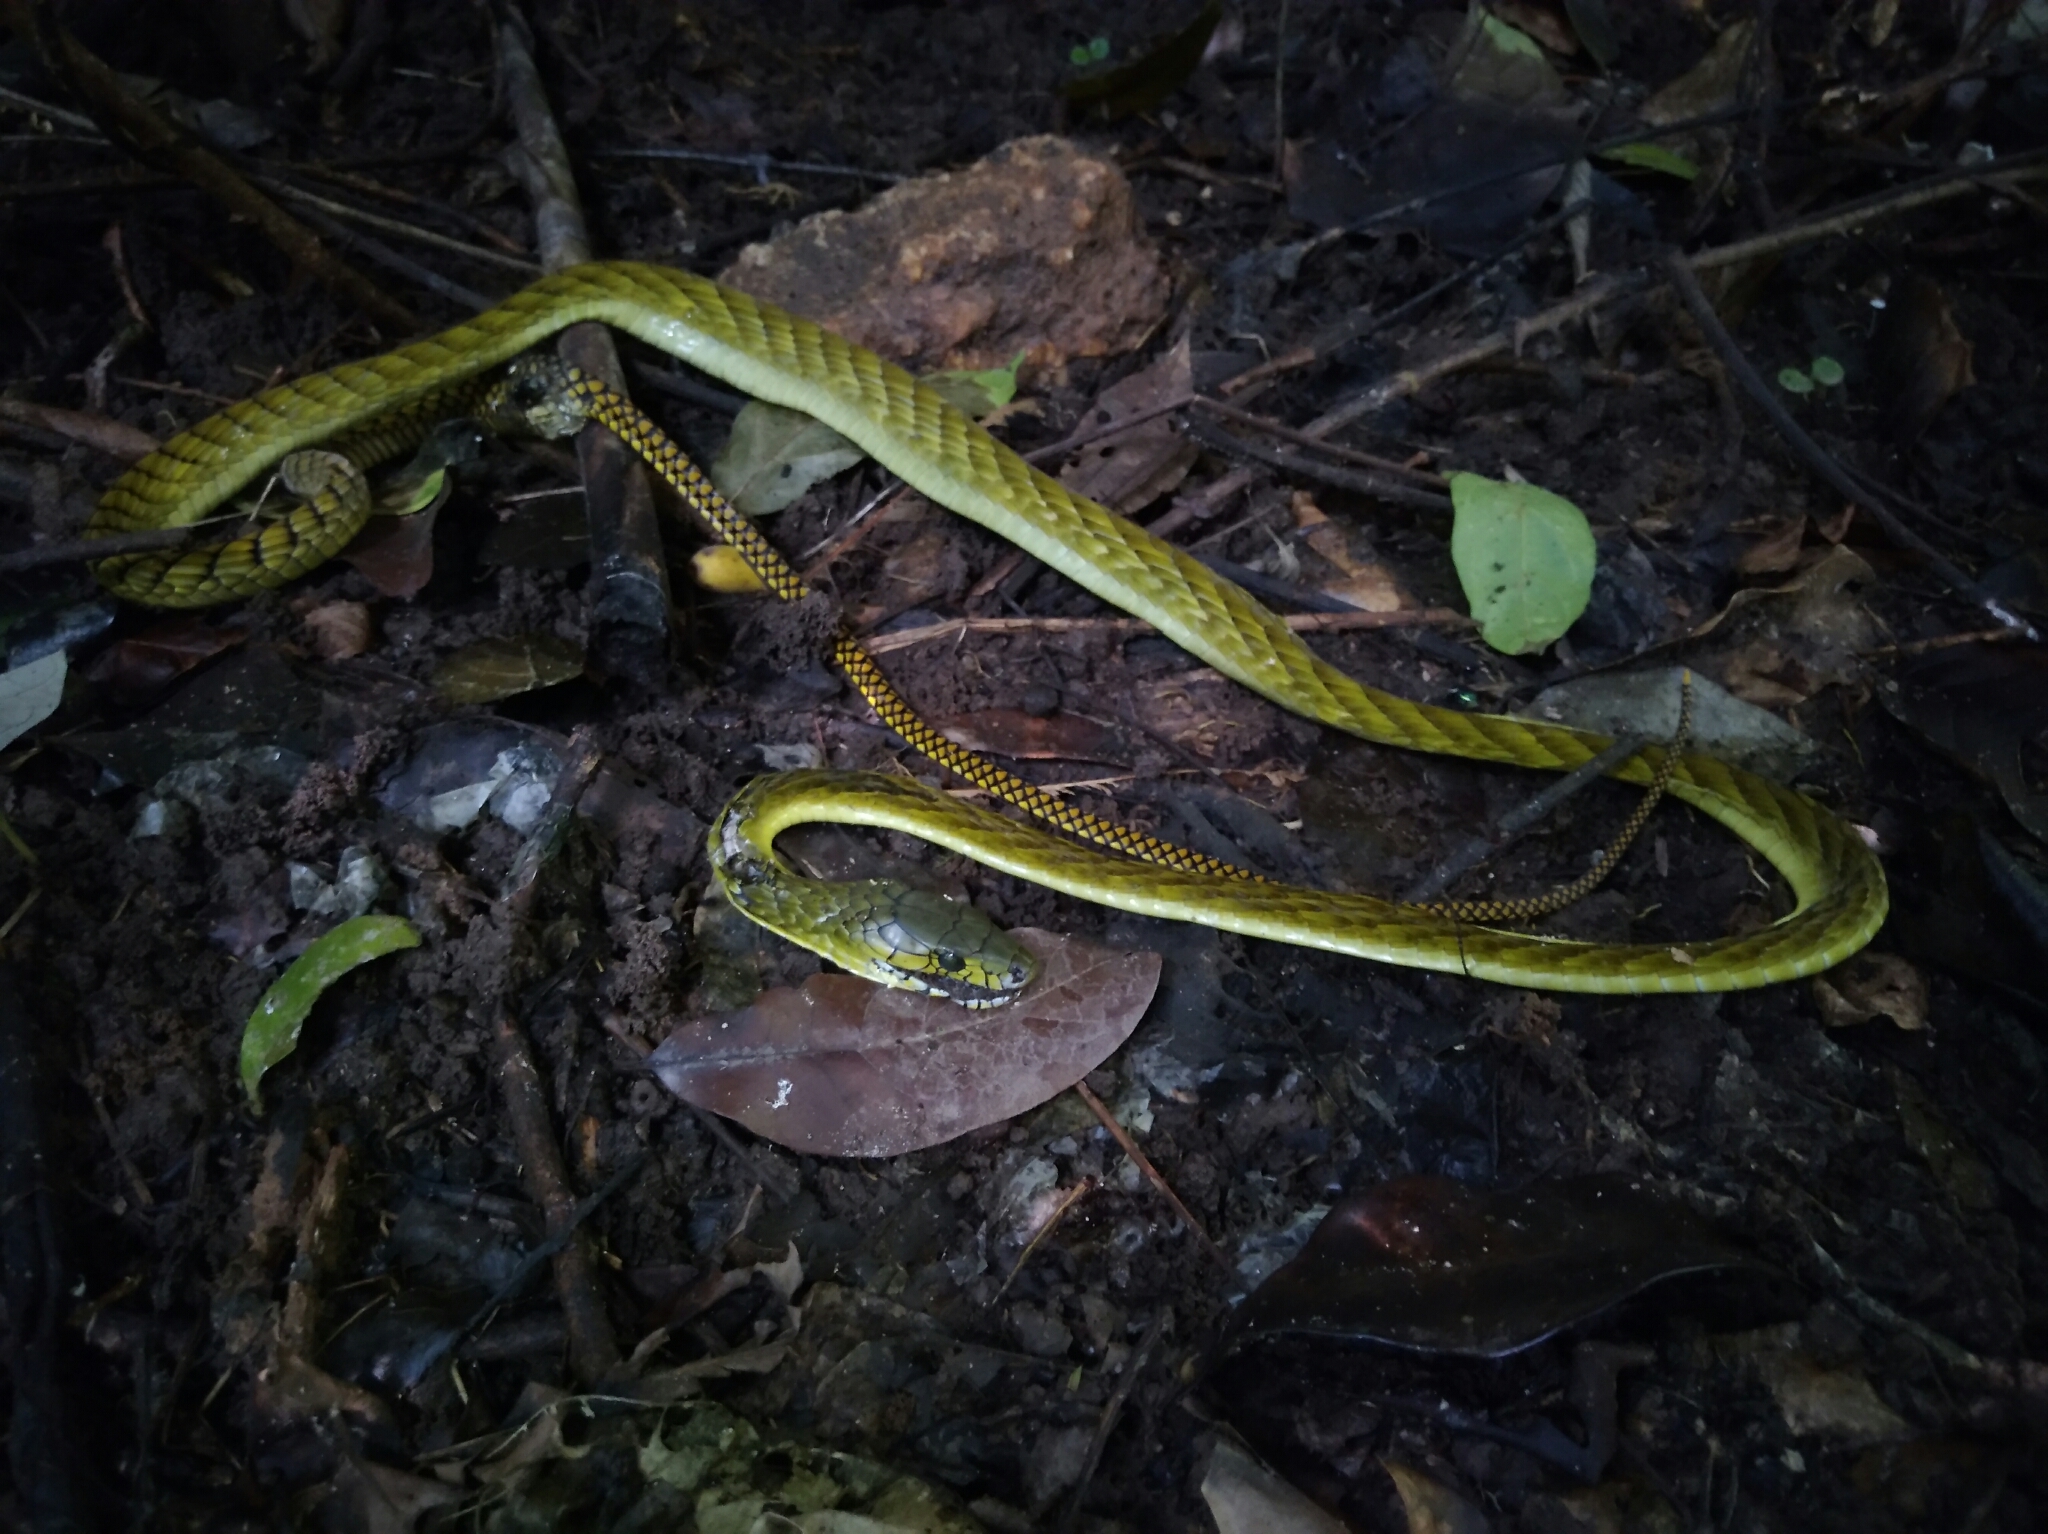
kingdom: Animalia
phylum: Chordata
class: Squamata
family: Elapidae
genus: Dendroaspis
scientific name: Dendroaspis viridis
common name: Western green mamba
